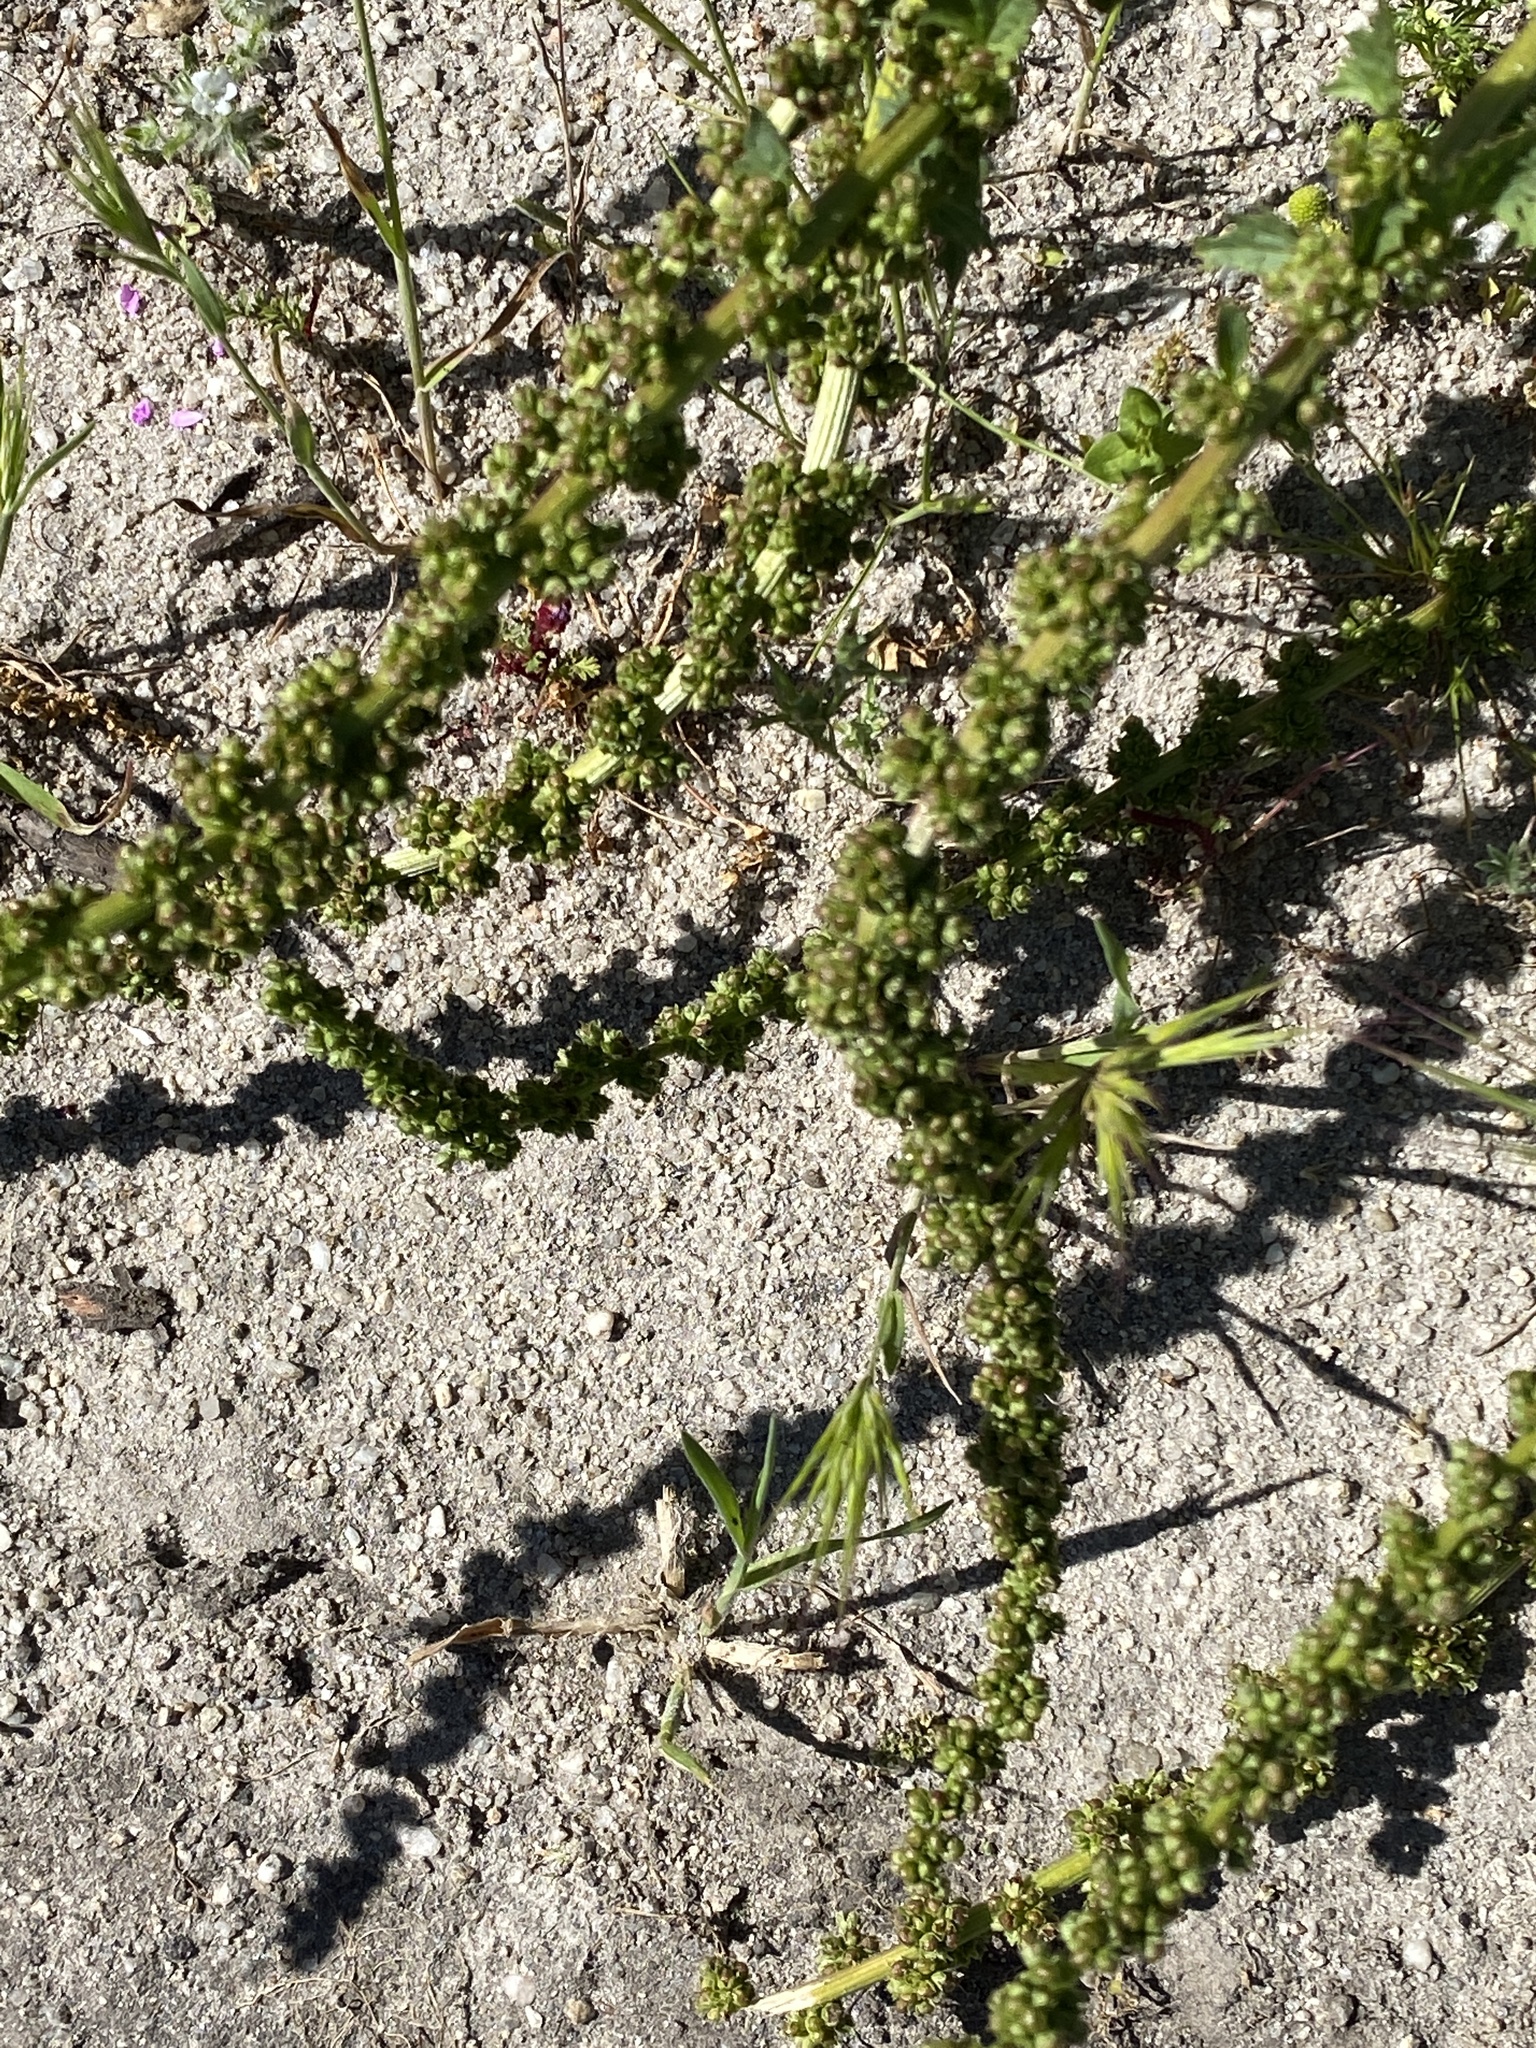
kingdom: Plantae
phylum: Tracheophyta
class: Magnoliopsida
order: Caryophyllales
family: Amaranthaceae
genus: Blitum
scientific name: Blitum californicum
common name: California goosefoot
